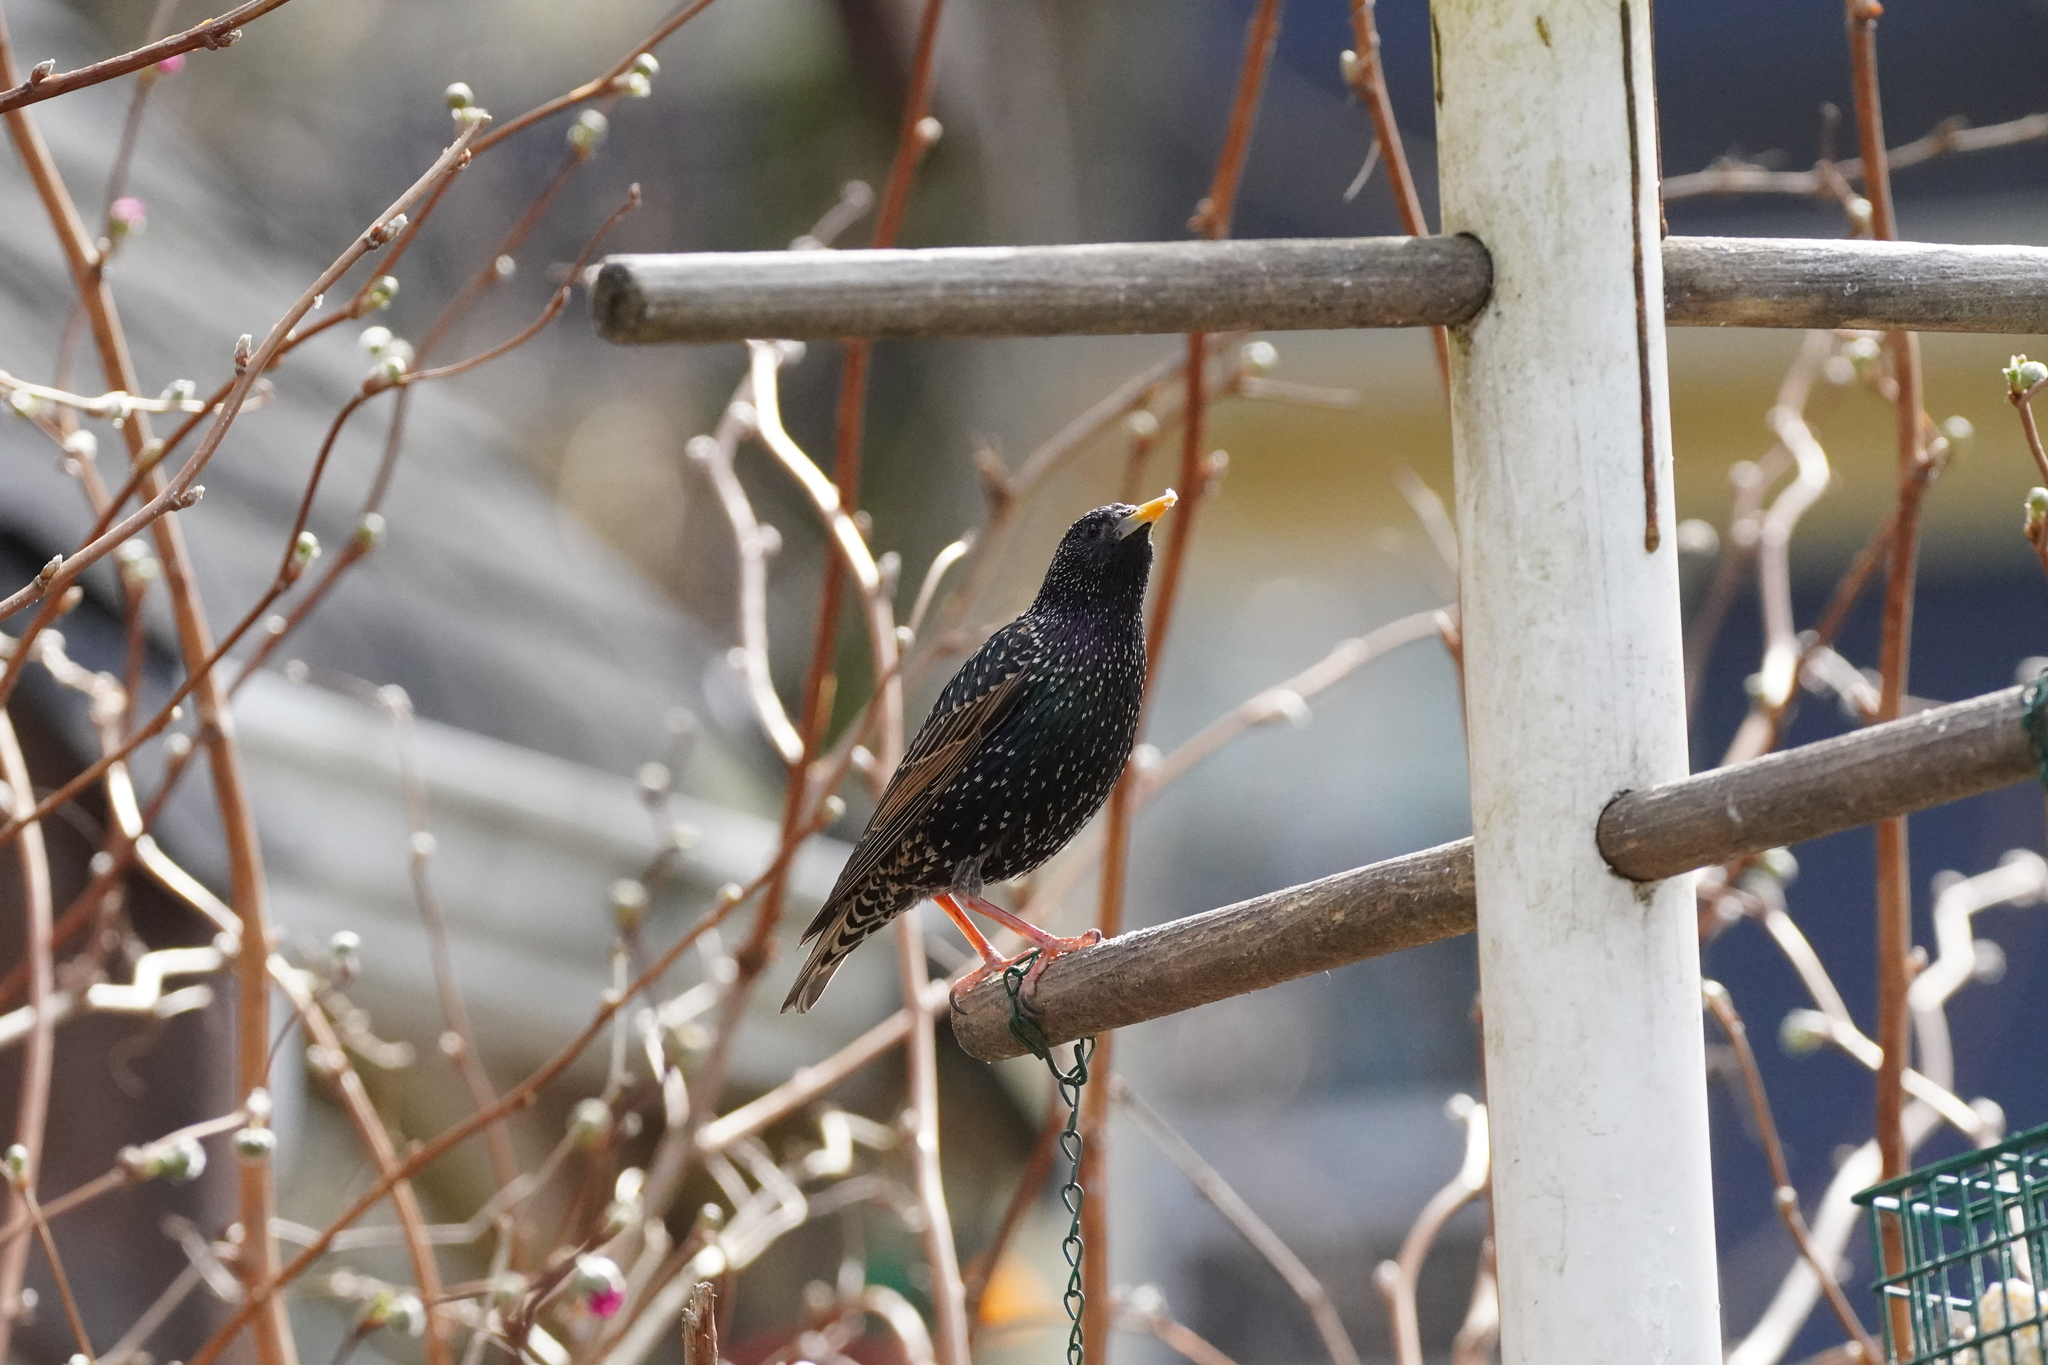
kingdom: Animalia
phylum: Chordata
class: Aves
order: Passeriformes
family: Sturnidae
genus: Sturnus
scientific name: Sturnus vulgaris
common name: Common starling
